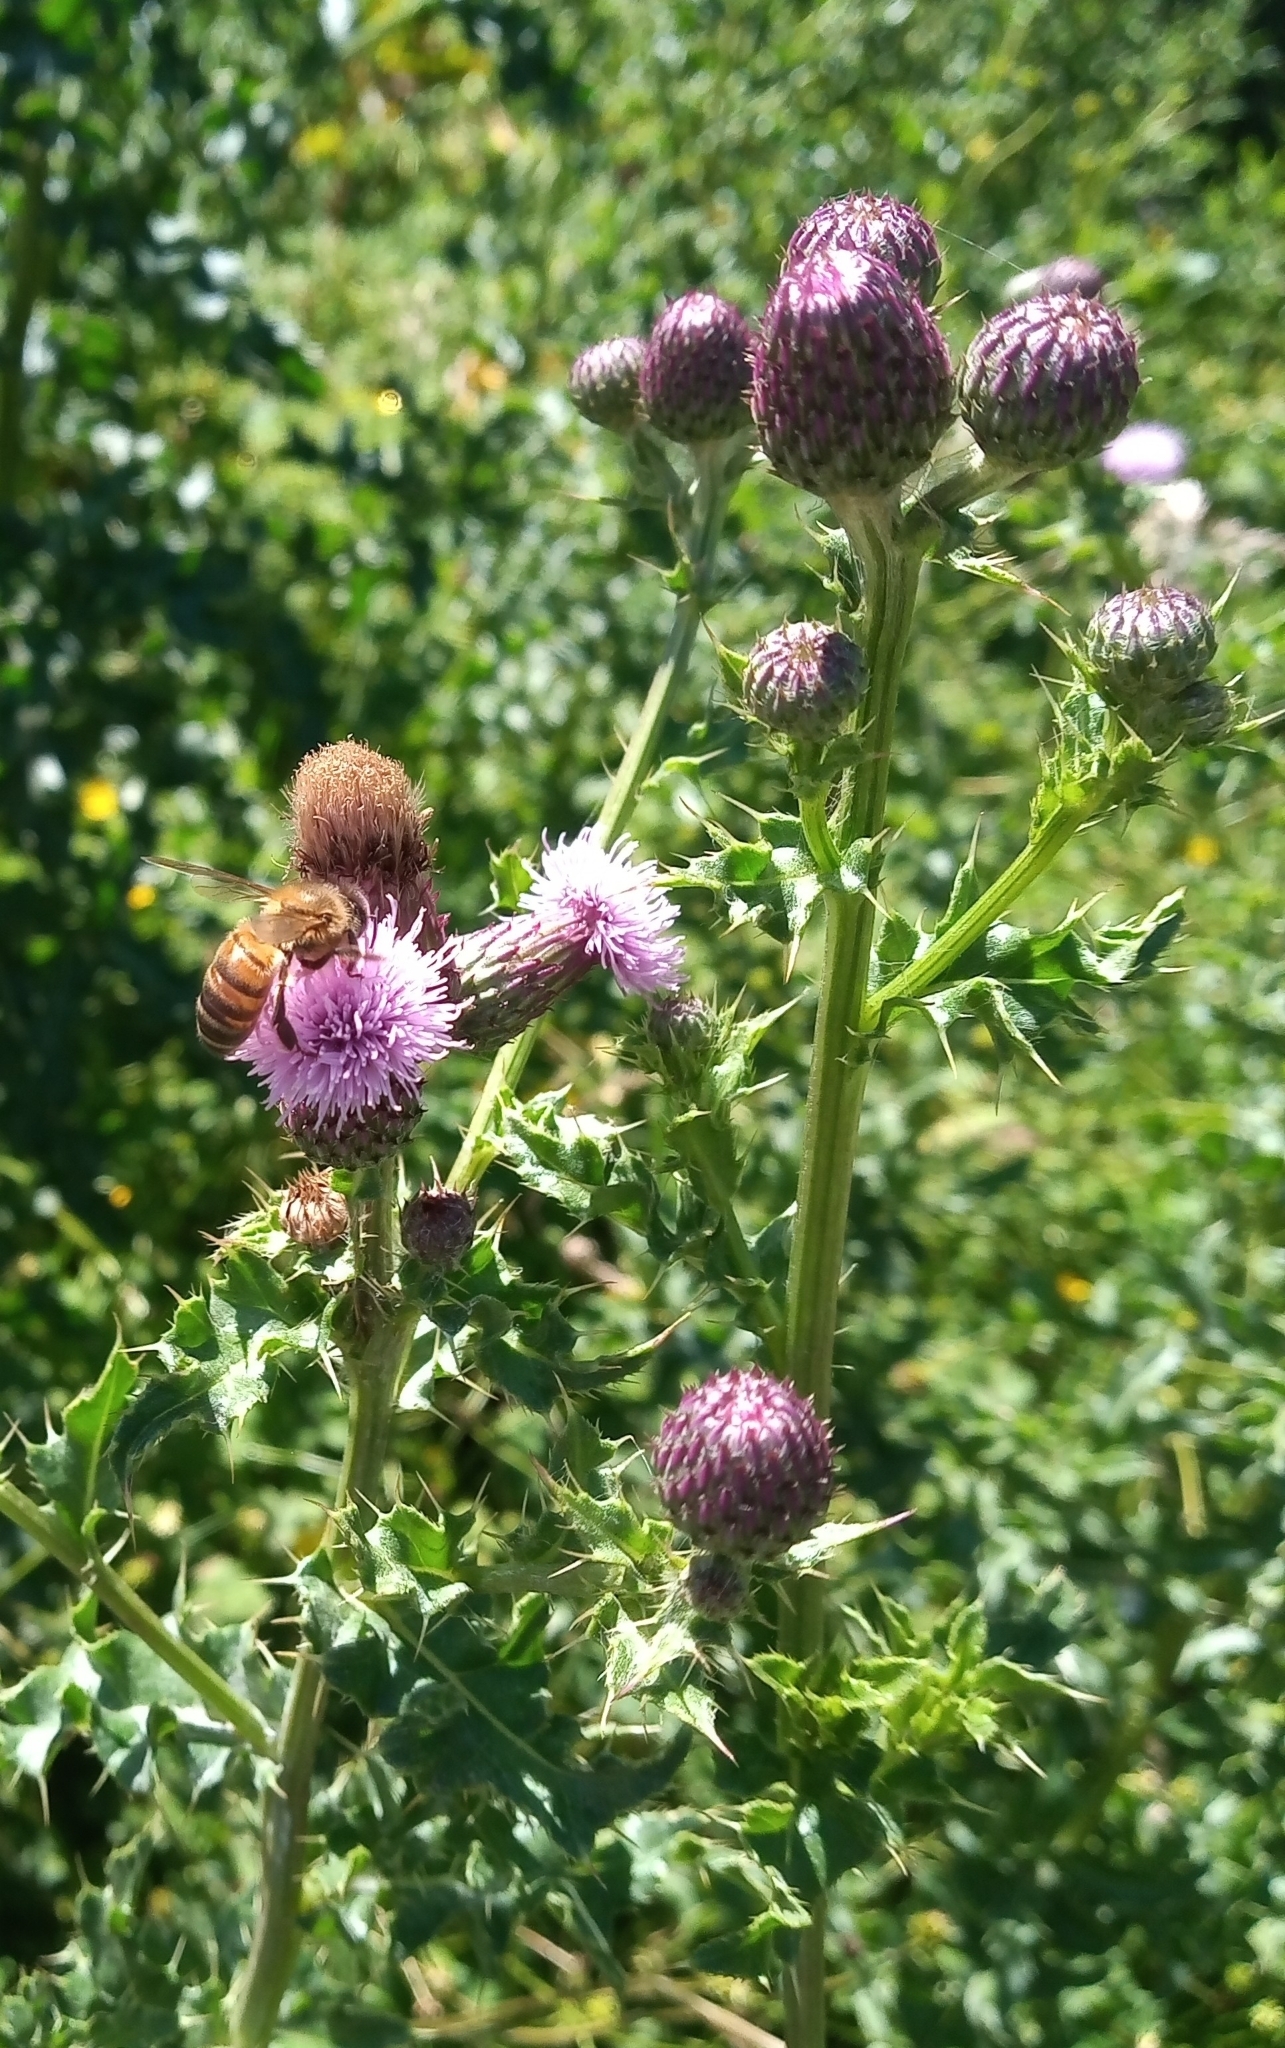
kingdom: Animalia
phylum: Arthropoda
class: Insecta
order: Hymenoptera
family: Apidae
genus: Apis
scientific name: Apis mellifera
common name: Honey bee
